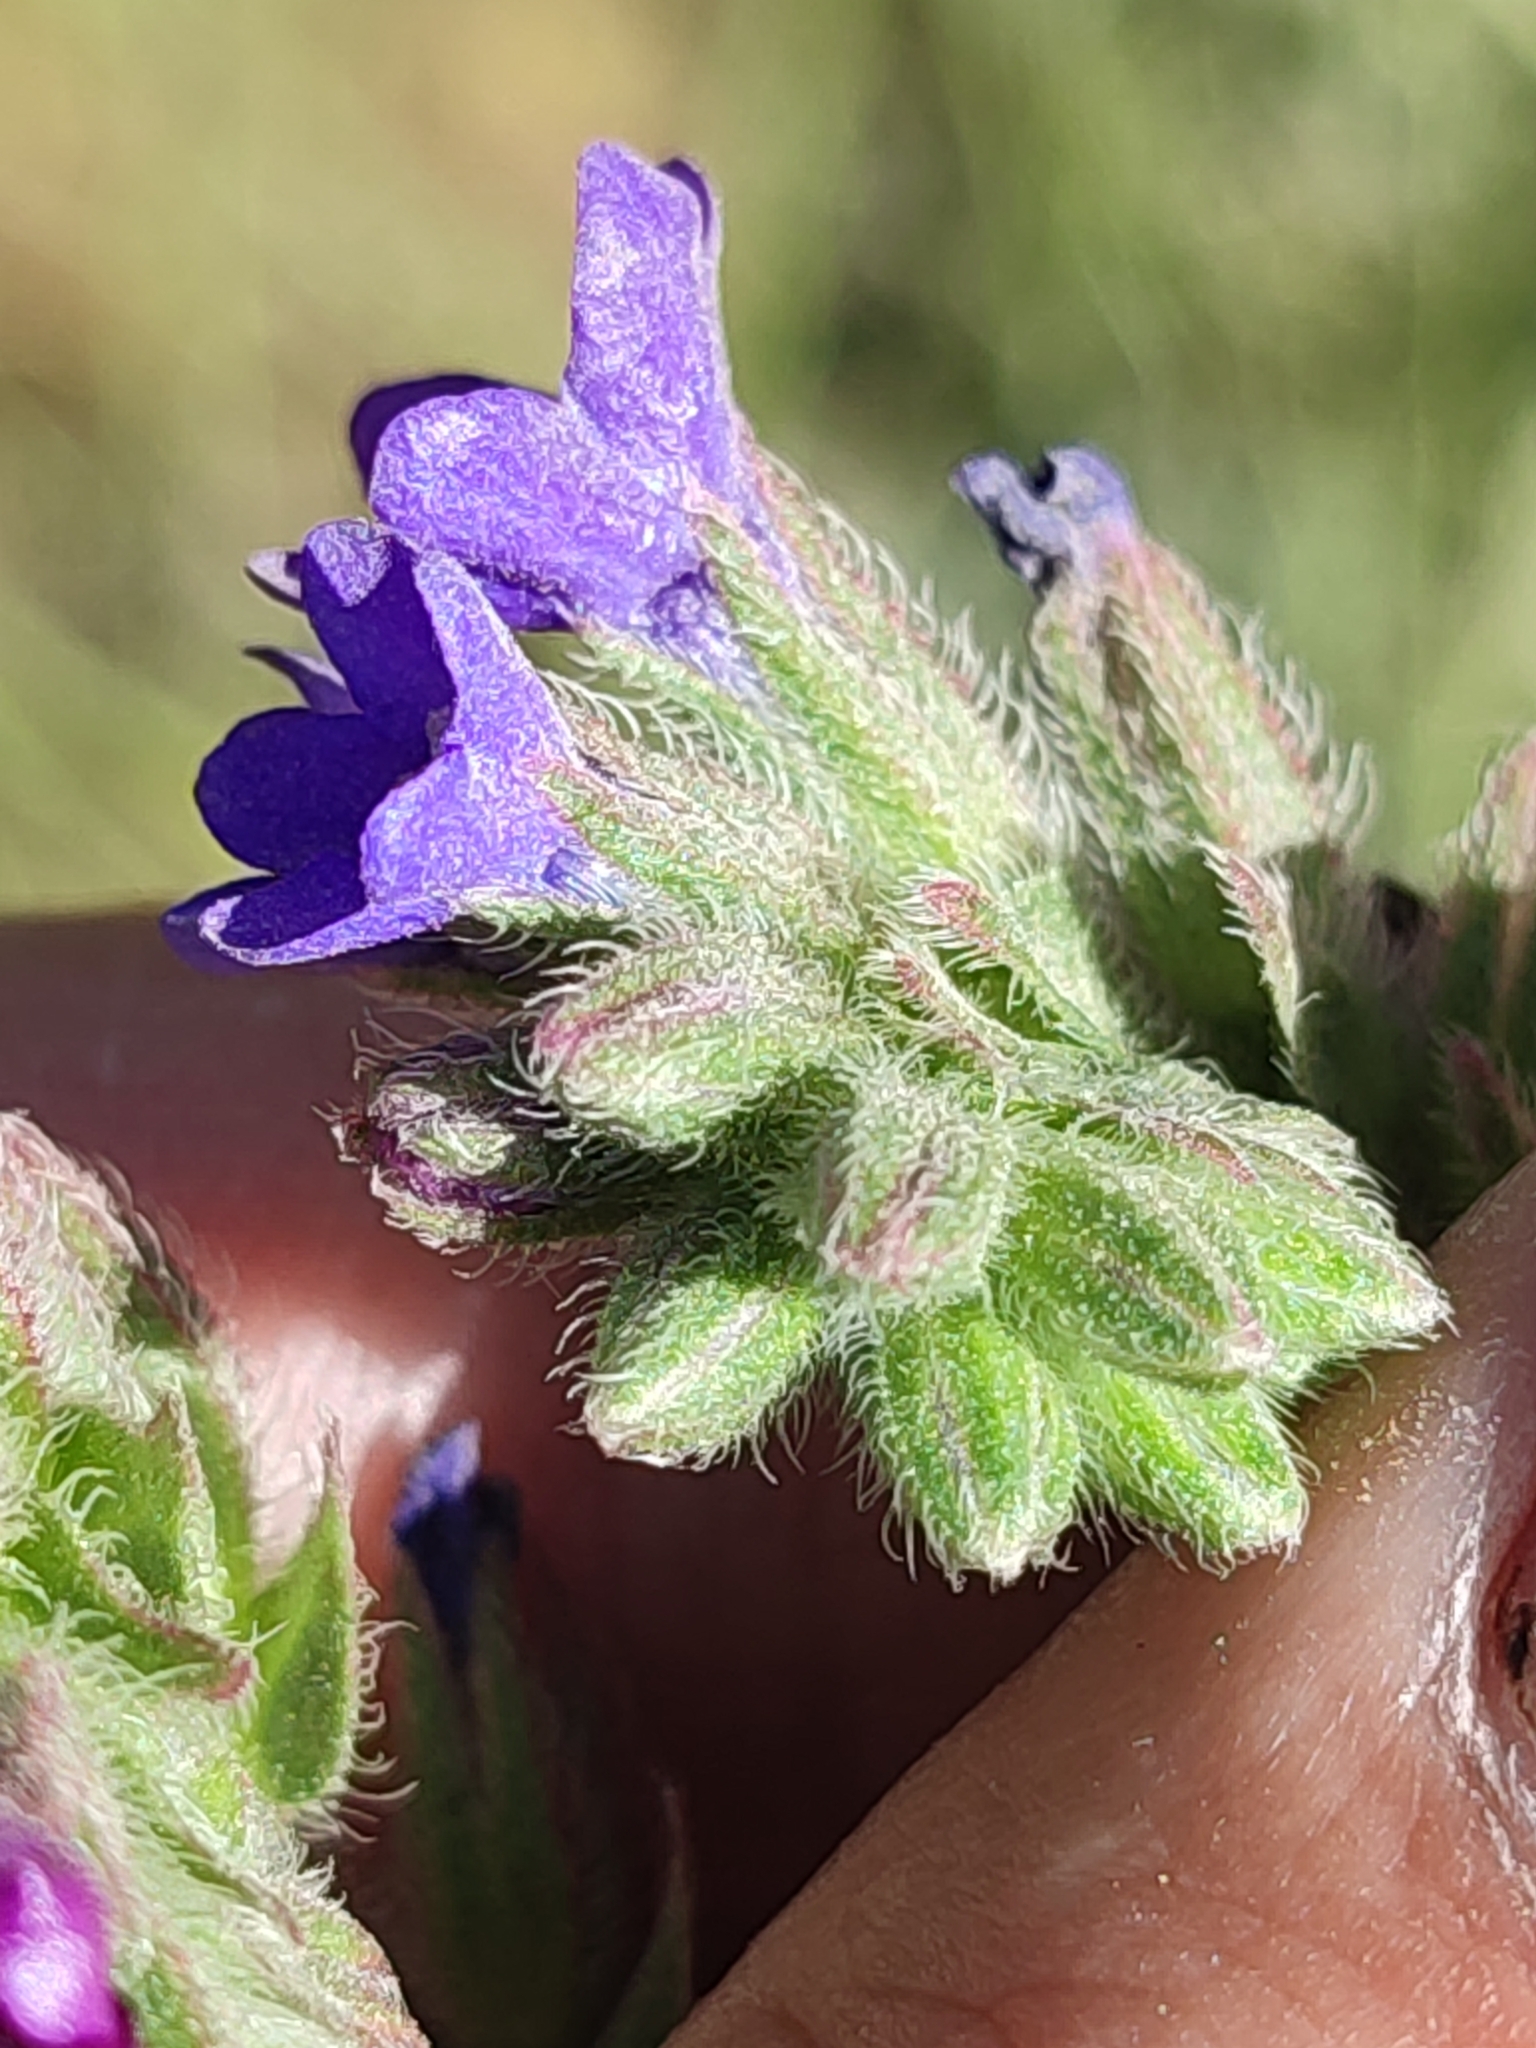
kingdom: Plantae
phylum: Tracheophyta
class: Magnoliopsida
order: Boraginales
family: Boraginaceae
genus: Echium
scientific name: Echium vulgare
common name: Common viper's bugloss
